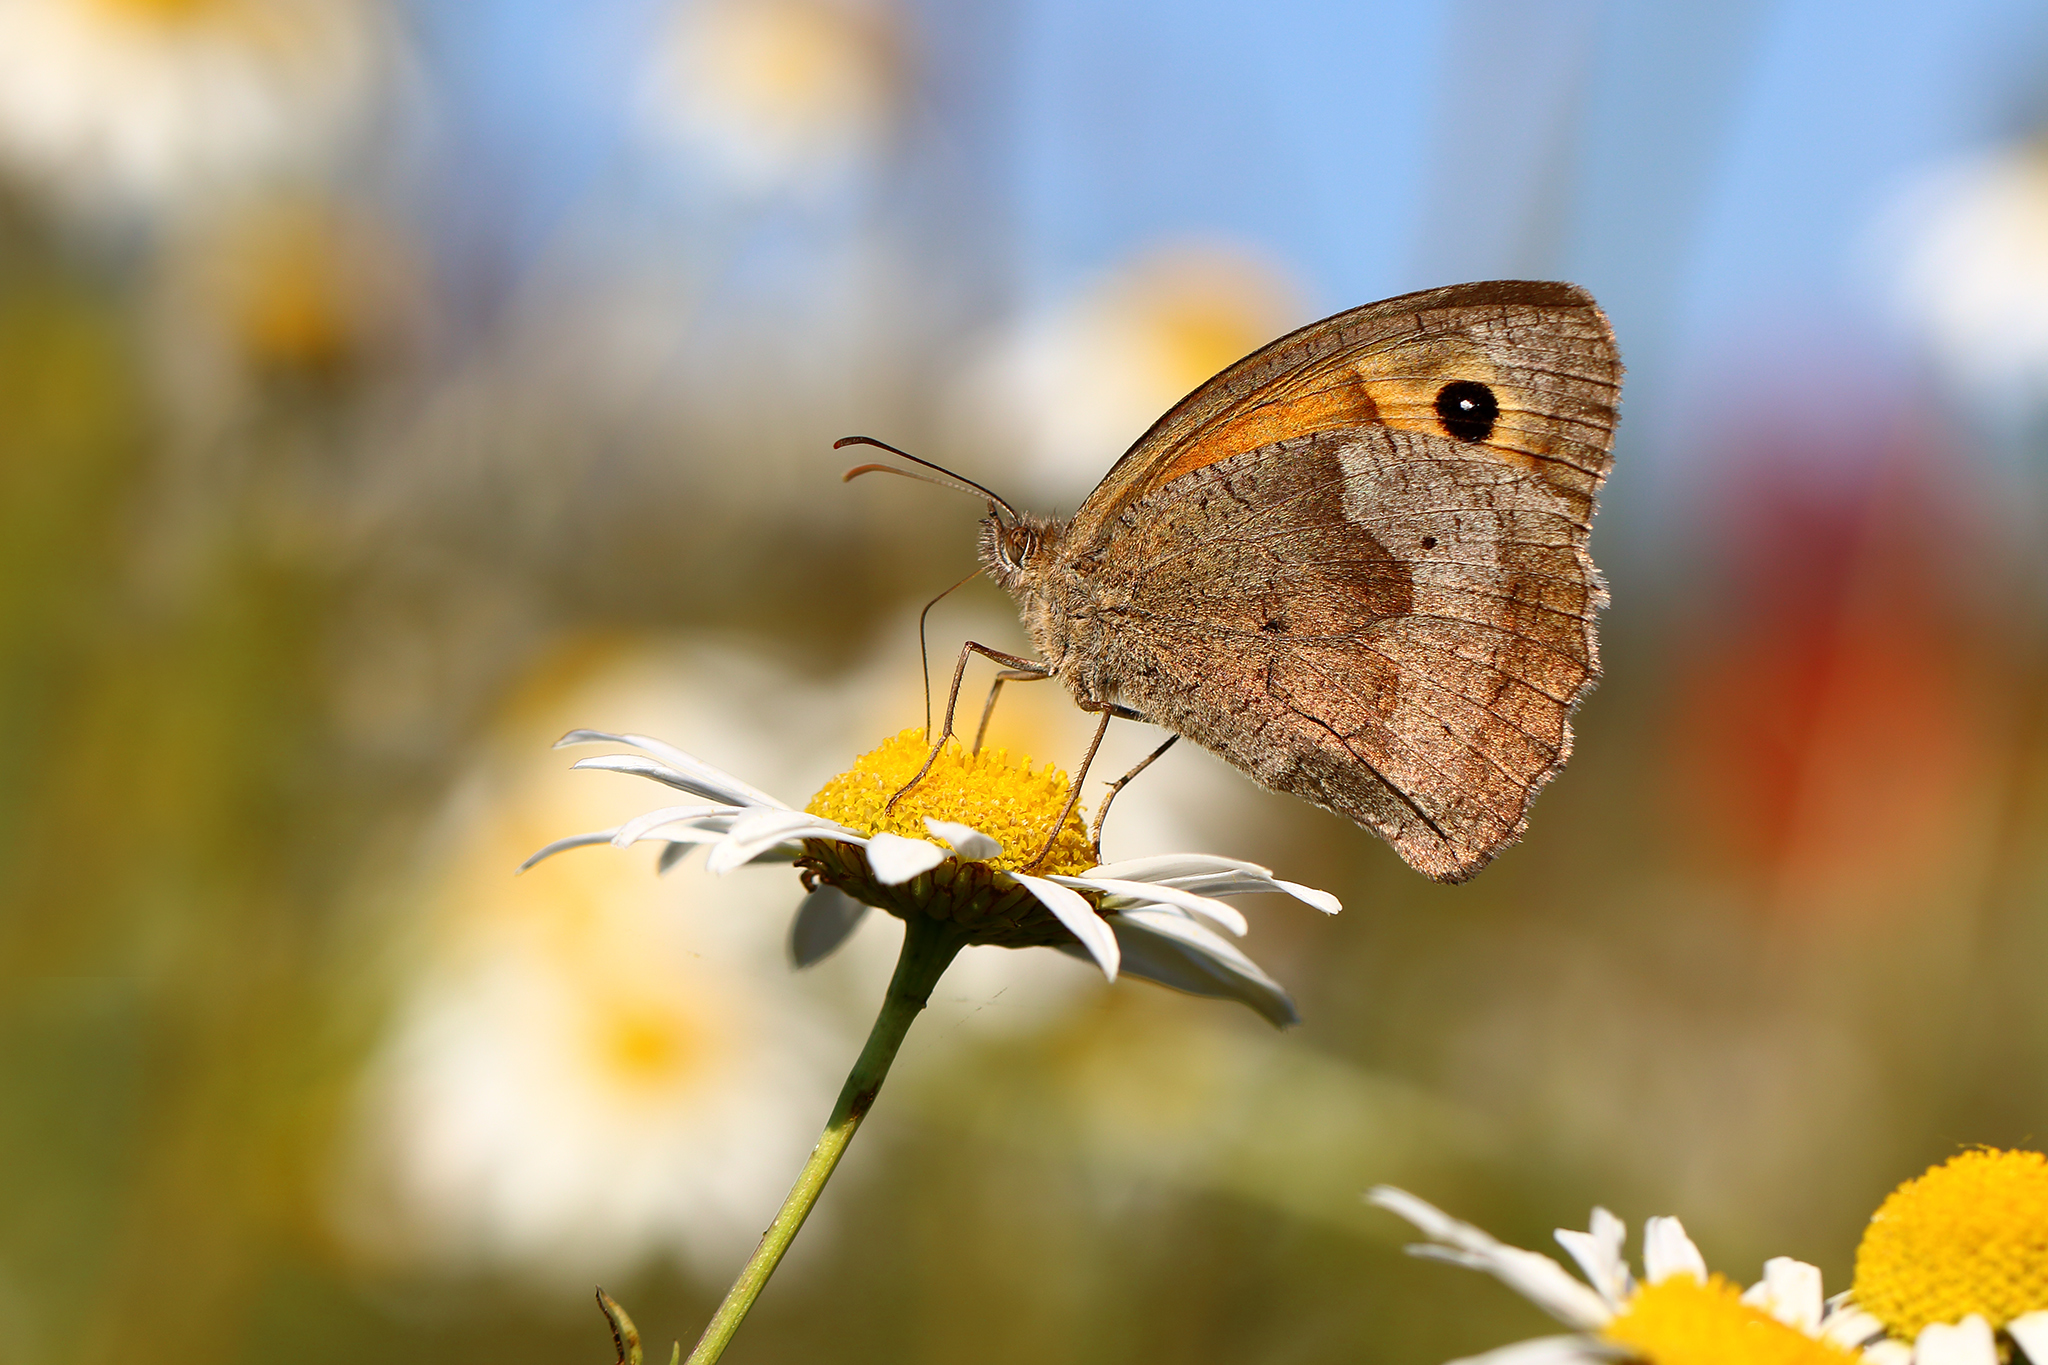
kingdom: Animalia
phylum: Arthropoda
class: Insecta
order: Lepidoptera
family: Nymphalidae
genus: Maniola
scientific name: Maniola jurtina
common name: Meadow brown
